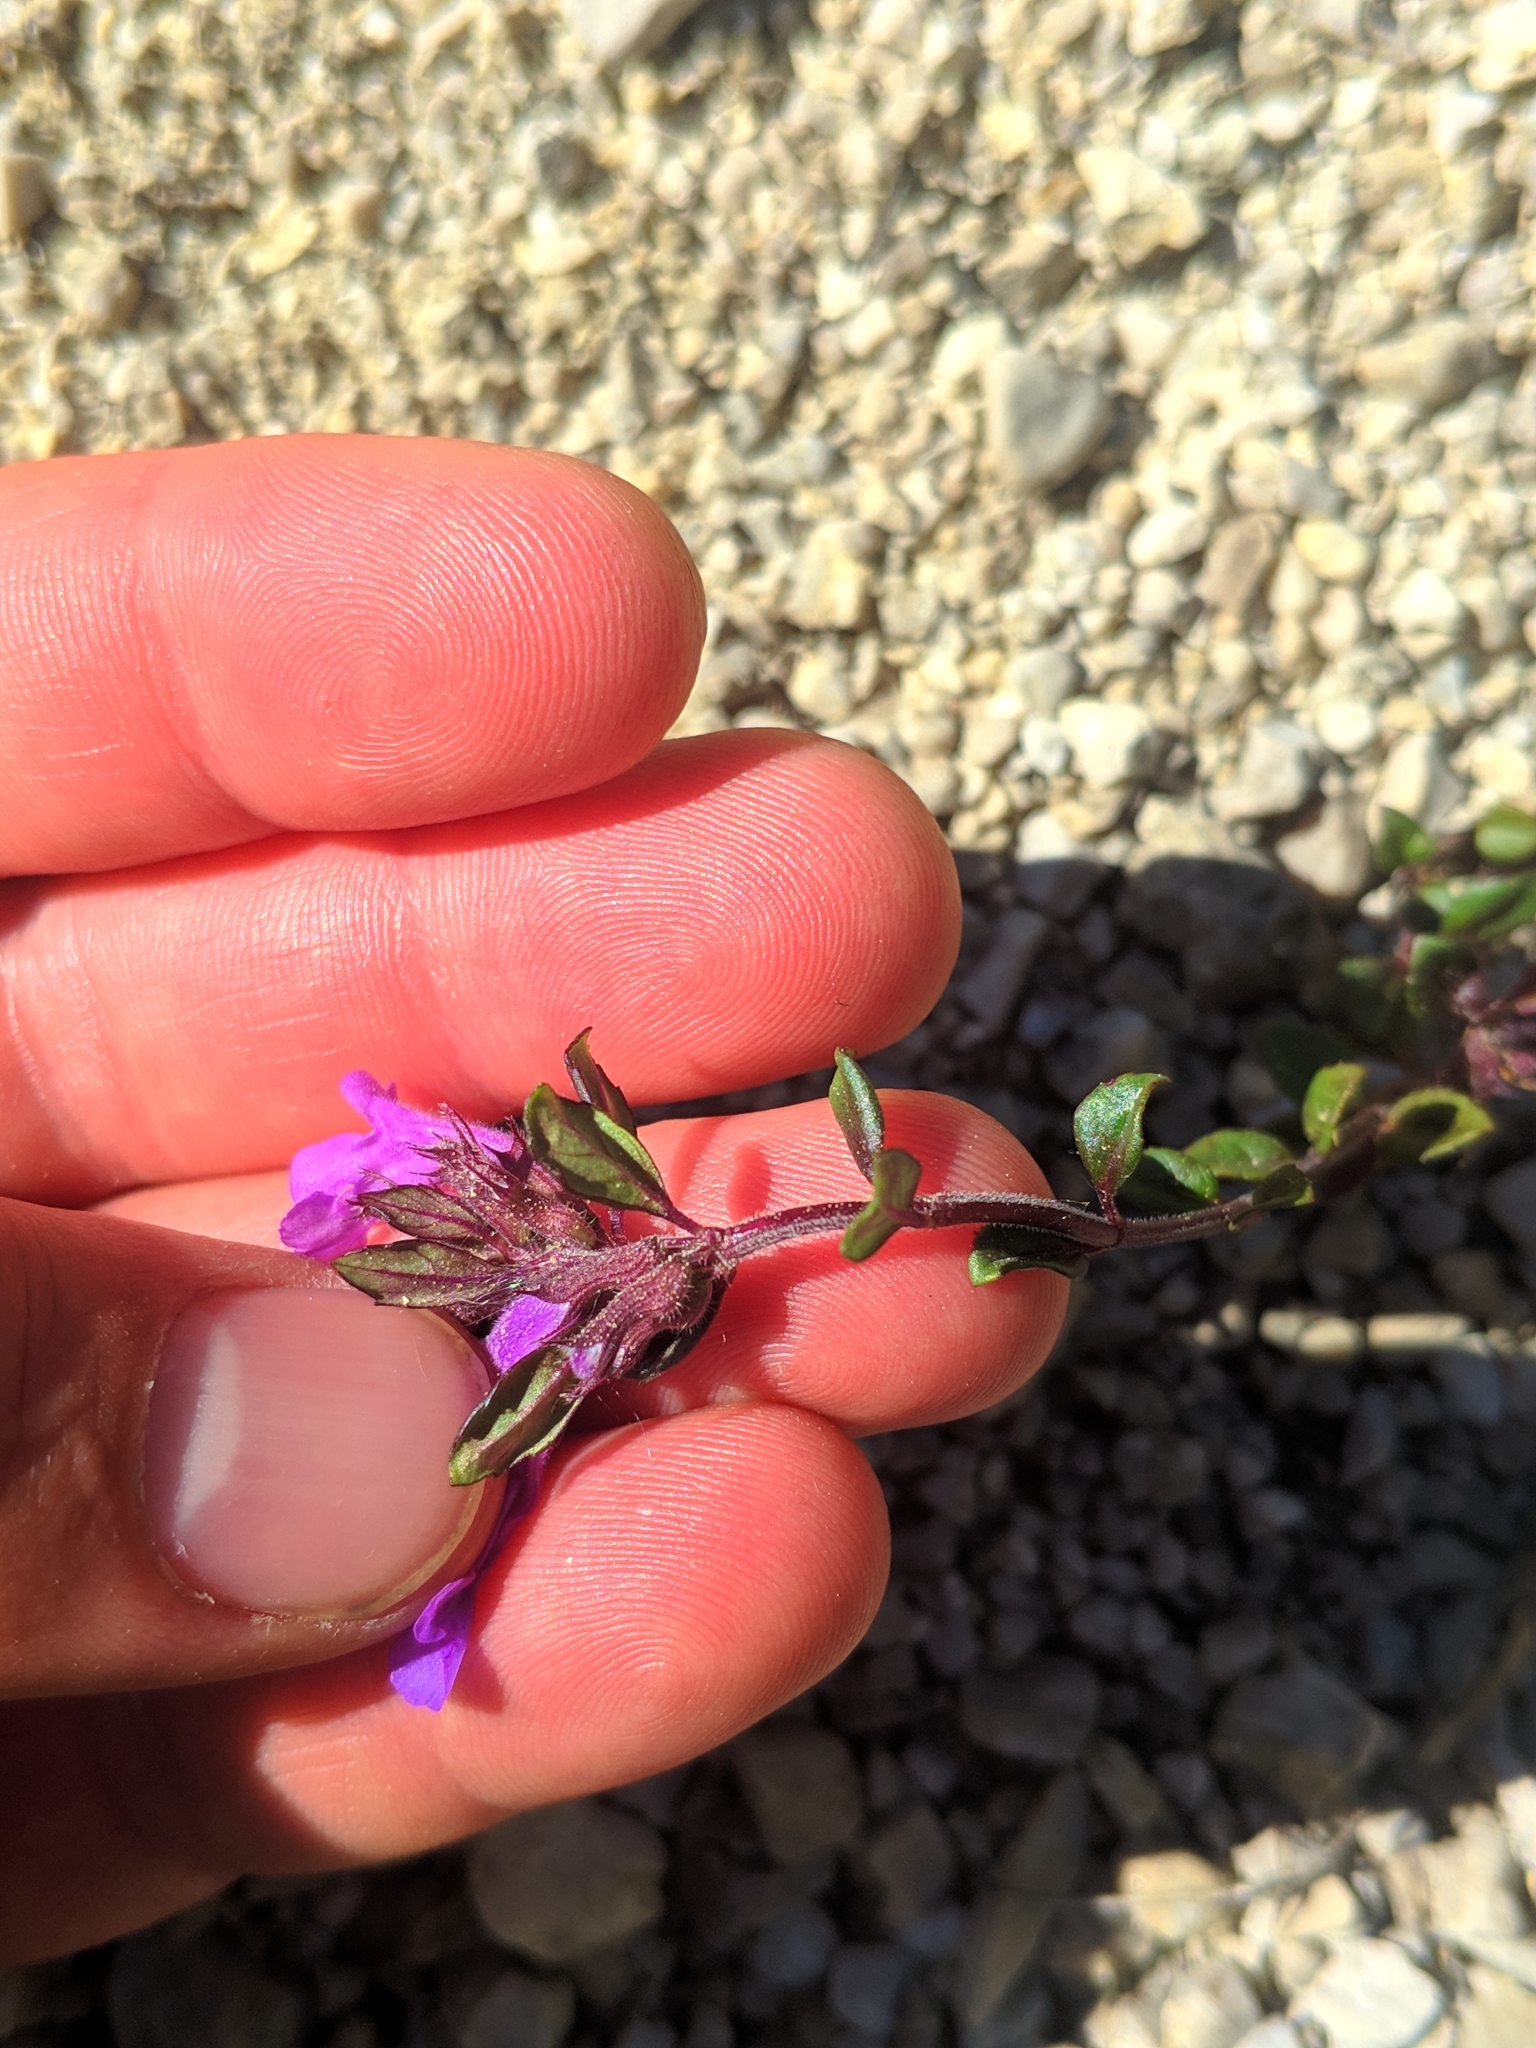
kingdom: Plantae
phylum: Tracheophyta
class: Magnoliopsida
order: Lamiales
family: Lamiaceae
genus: Clinopodium
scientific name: Clinopodium alpinum
